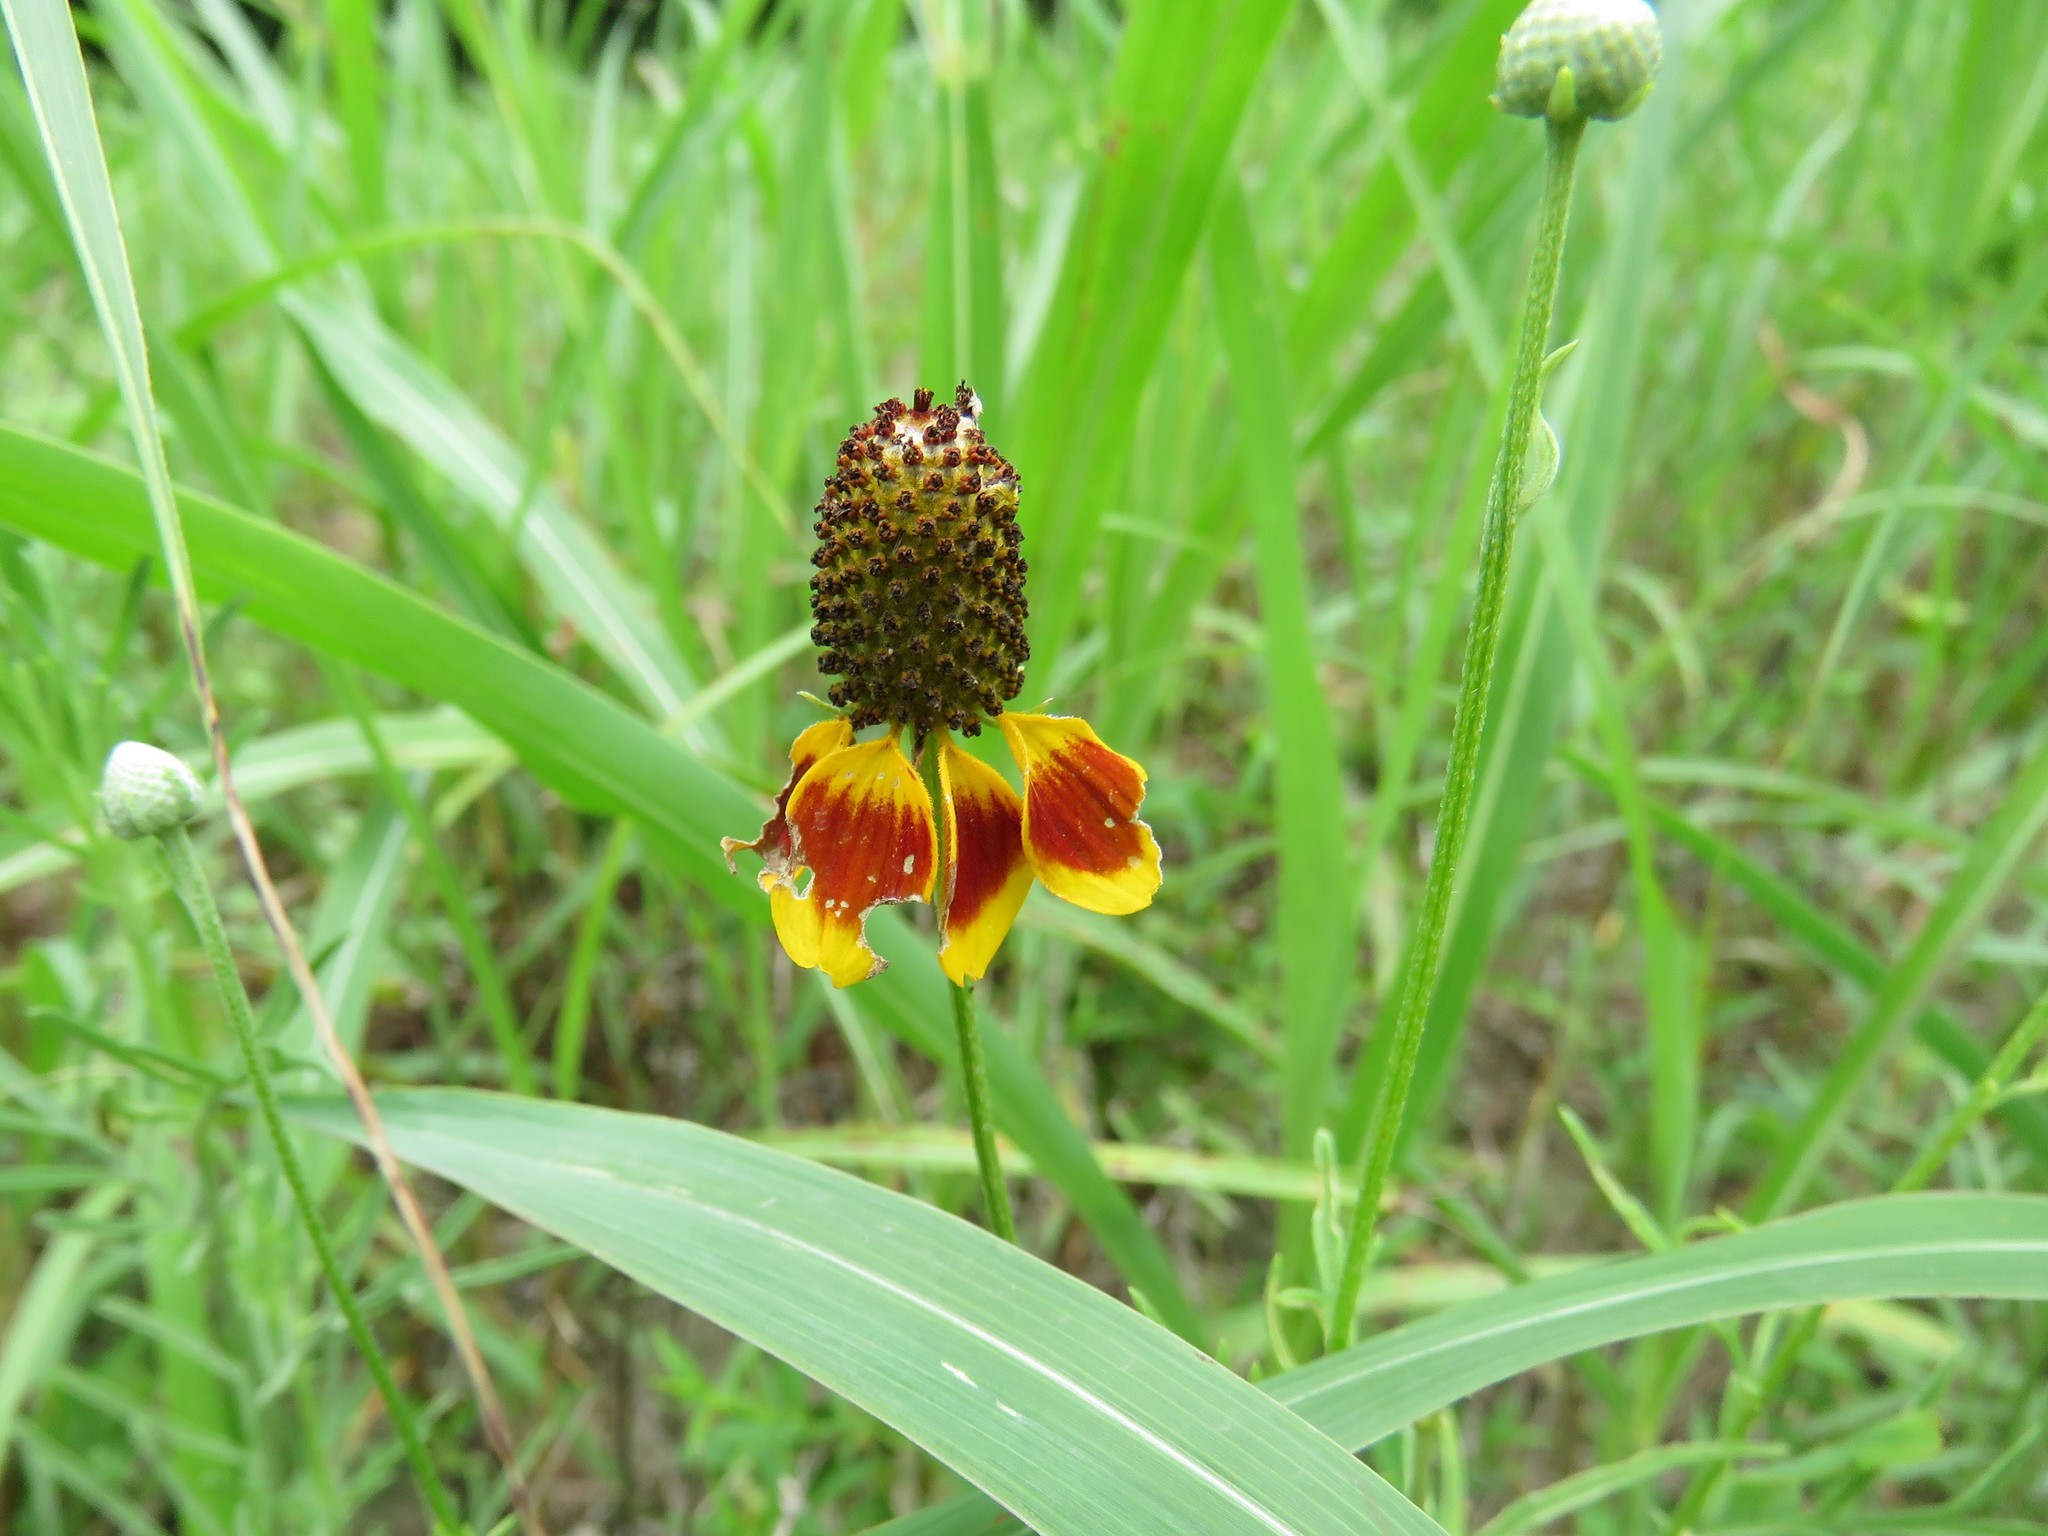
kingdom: Plantae
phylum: Tracheophyta
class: Magnoliopsida
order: Asterales
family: Asteraceae
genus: Ratibida
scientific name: Ratibida columnifera
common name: Prairie coneflower
